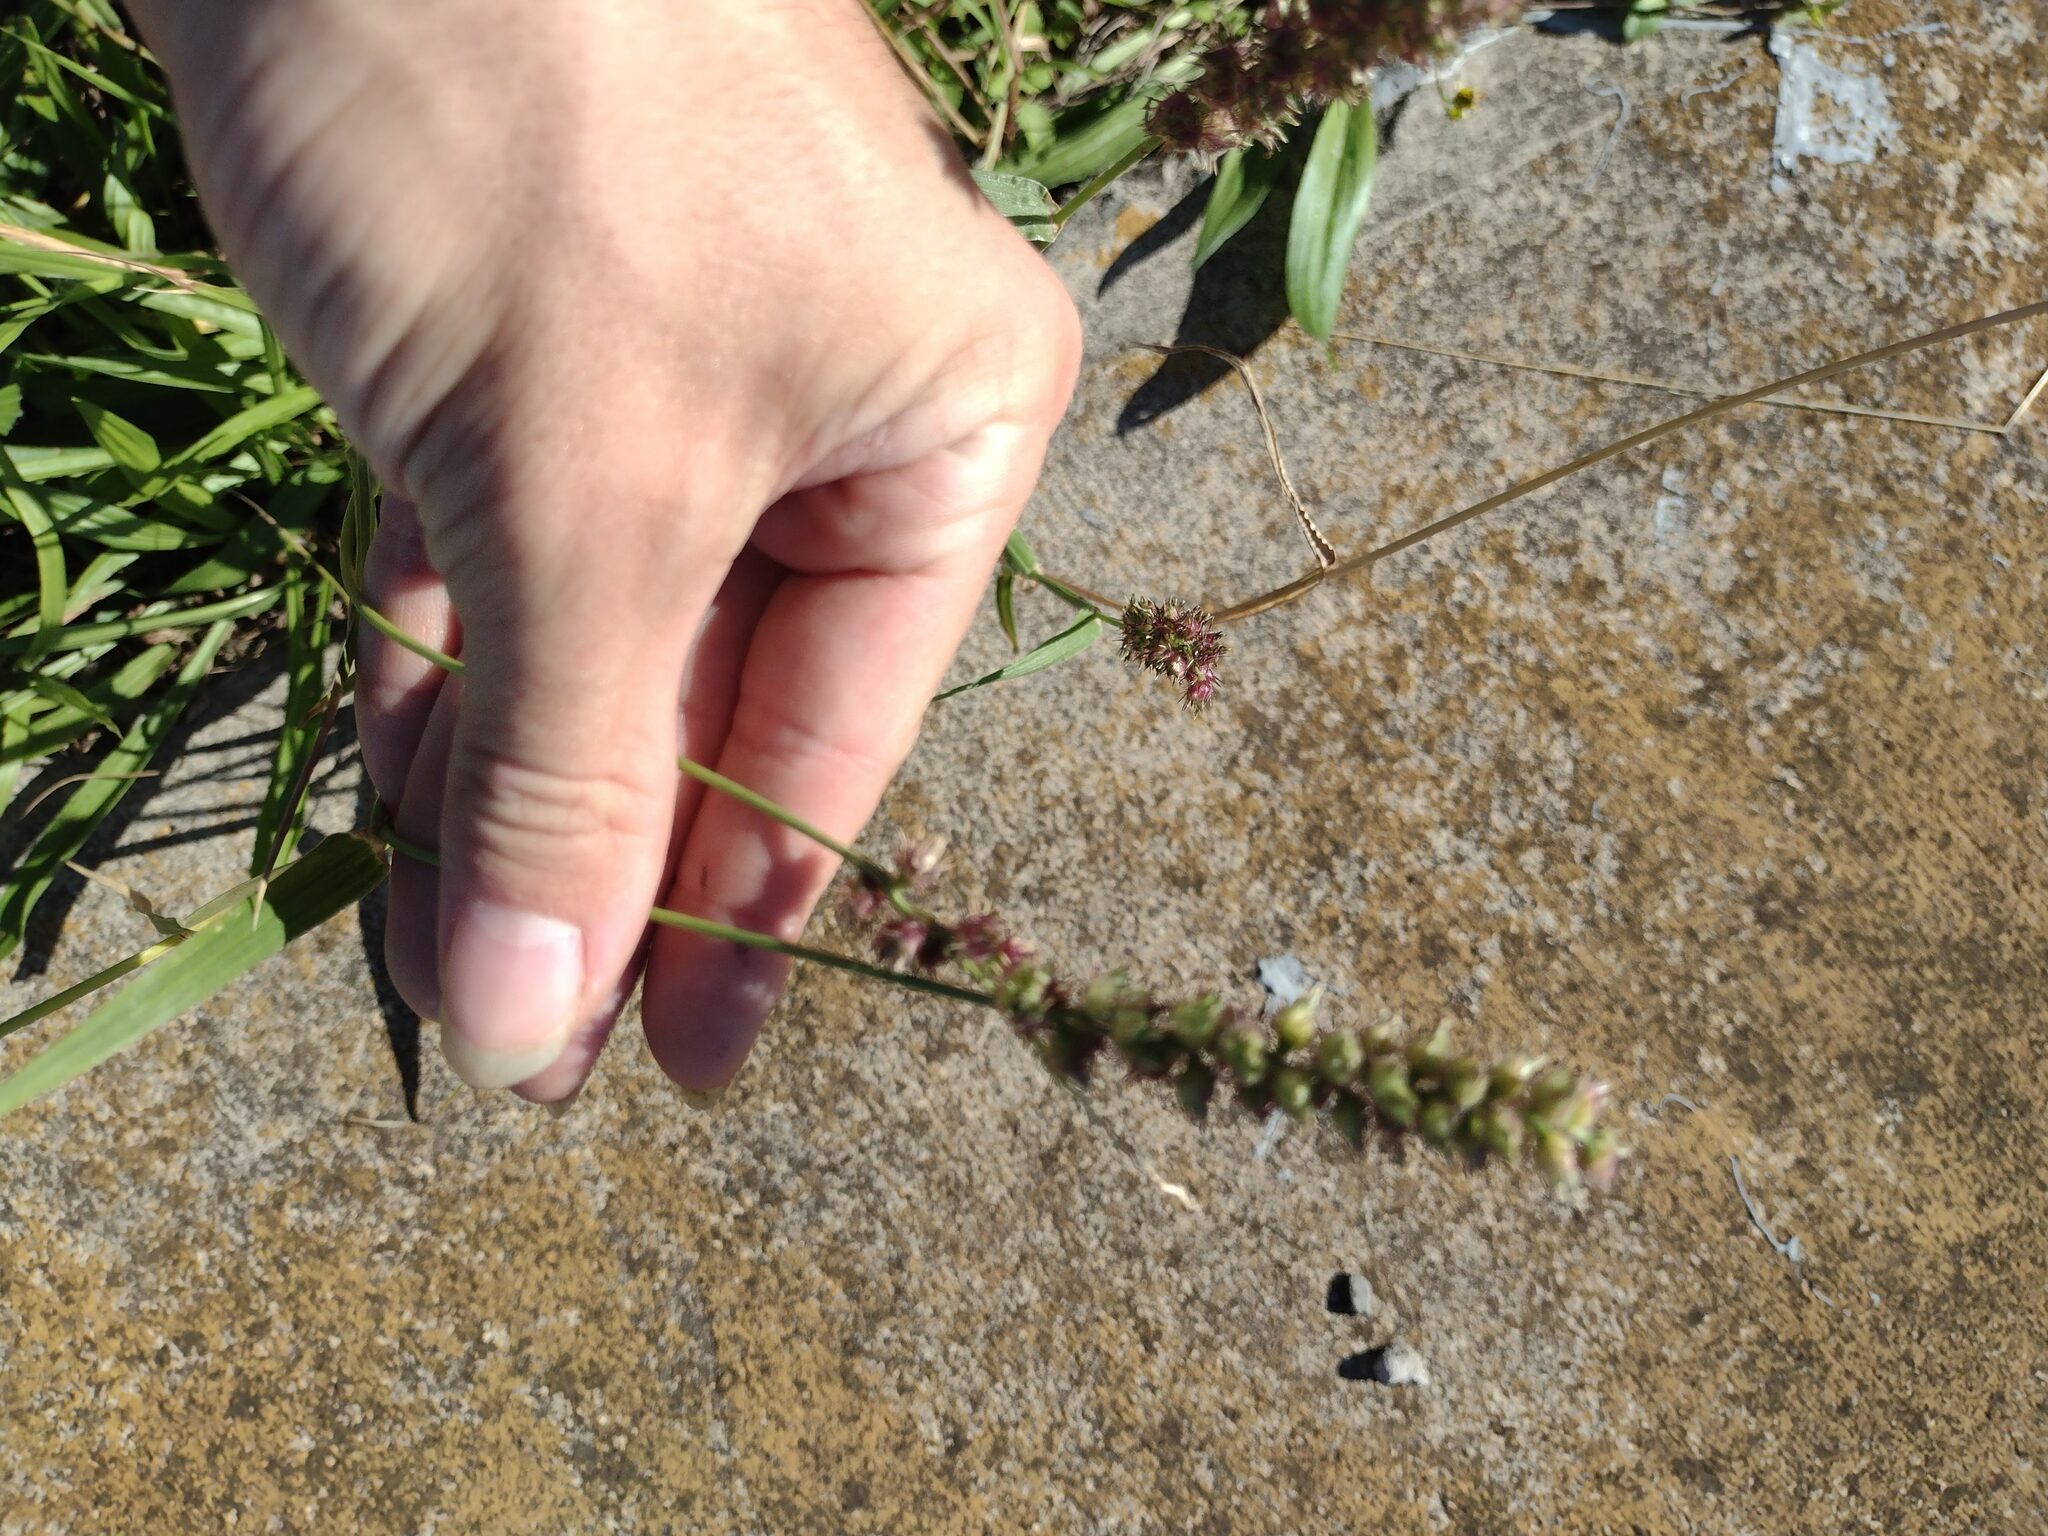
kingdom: Plantae
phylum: Tracheophyta
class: Liliopsida
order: Poales
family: Poaceae
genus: Cenchrus
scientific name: Cenchrus echinatus
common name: Southern sandbur
